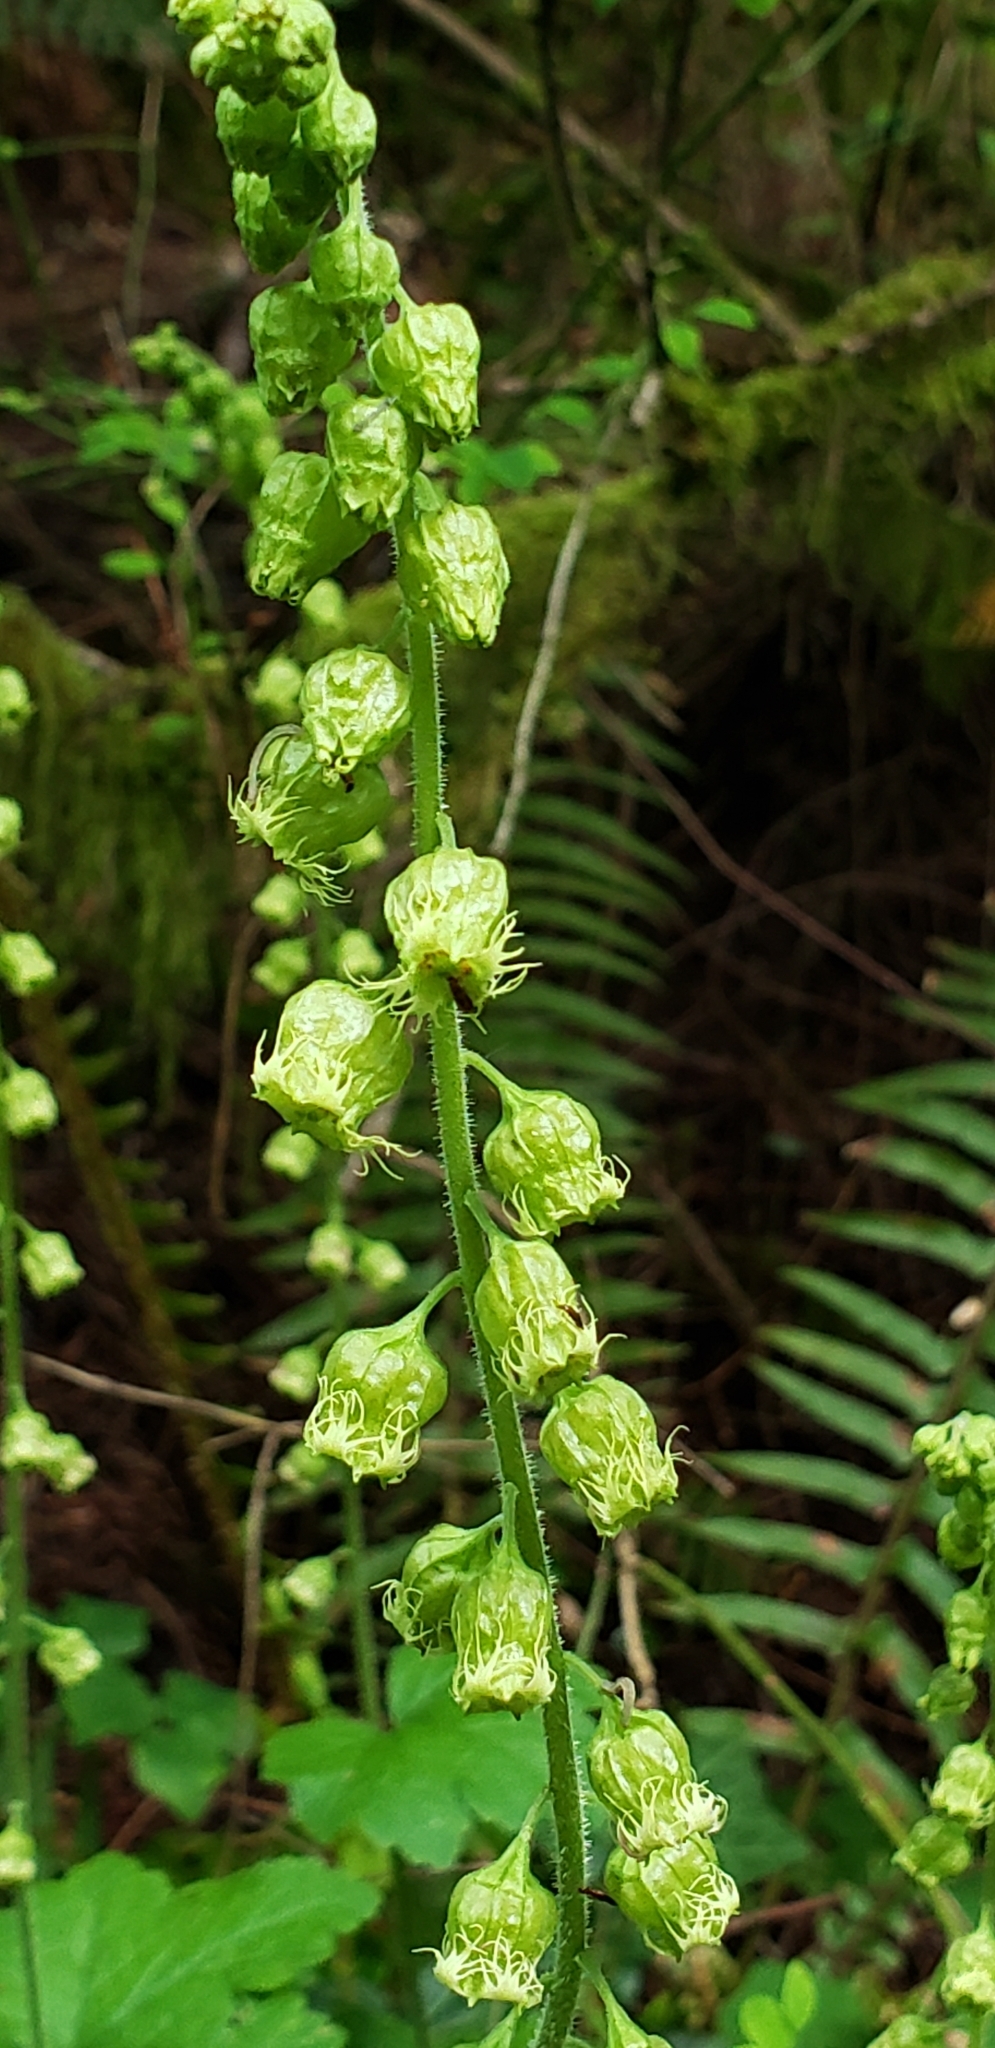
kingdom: Plantae
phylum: Tracheophyta
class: Magnoliopsida
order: Saxifragales
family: Saxifragaceae
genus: Tellima
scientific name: Tellima grandiflora
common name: Fringecups
